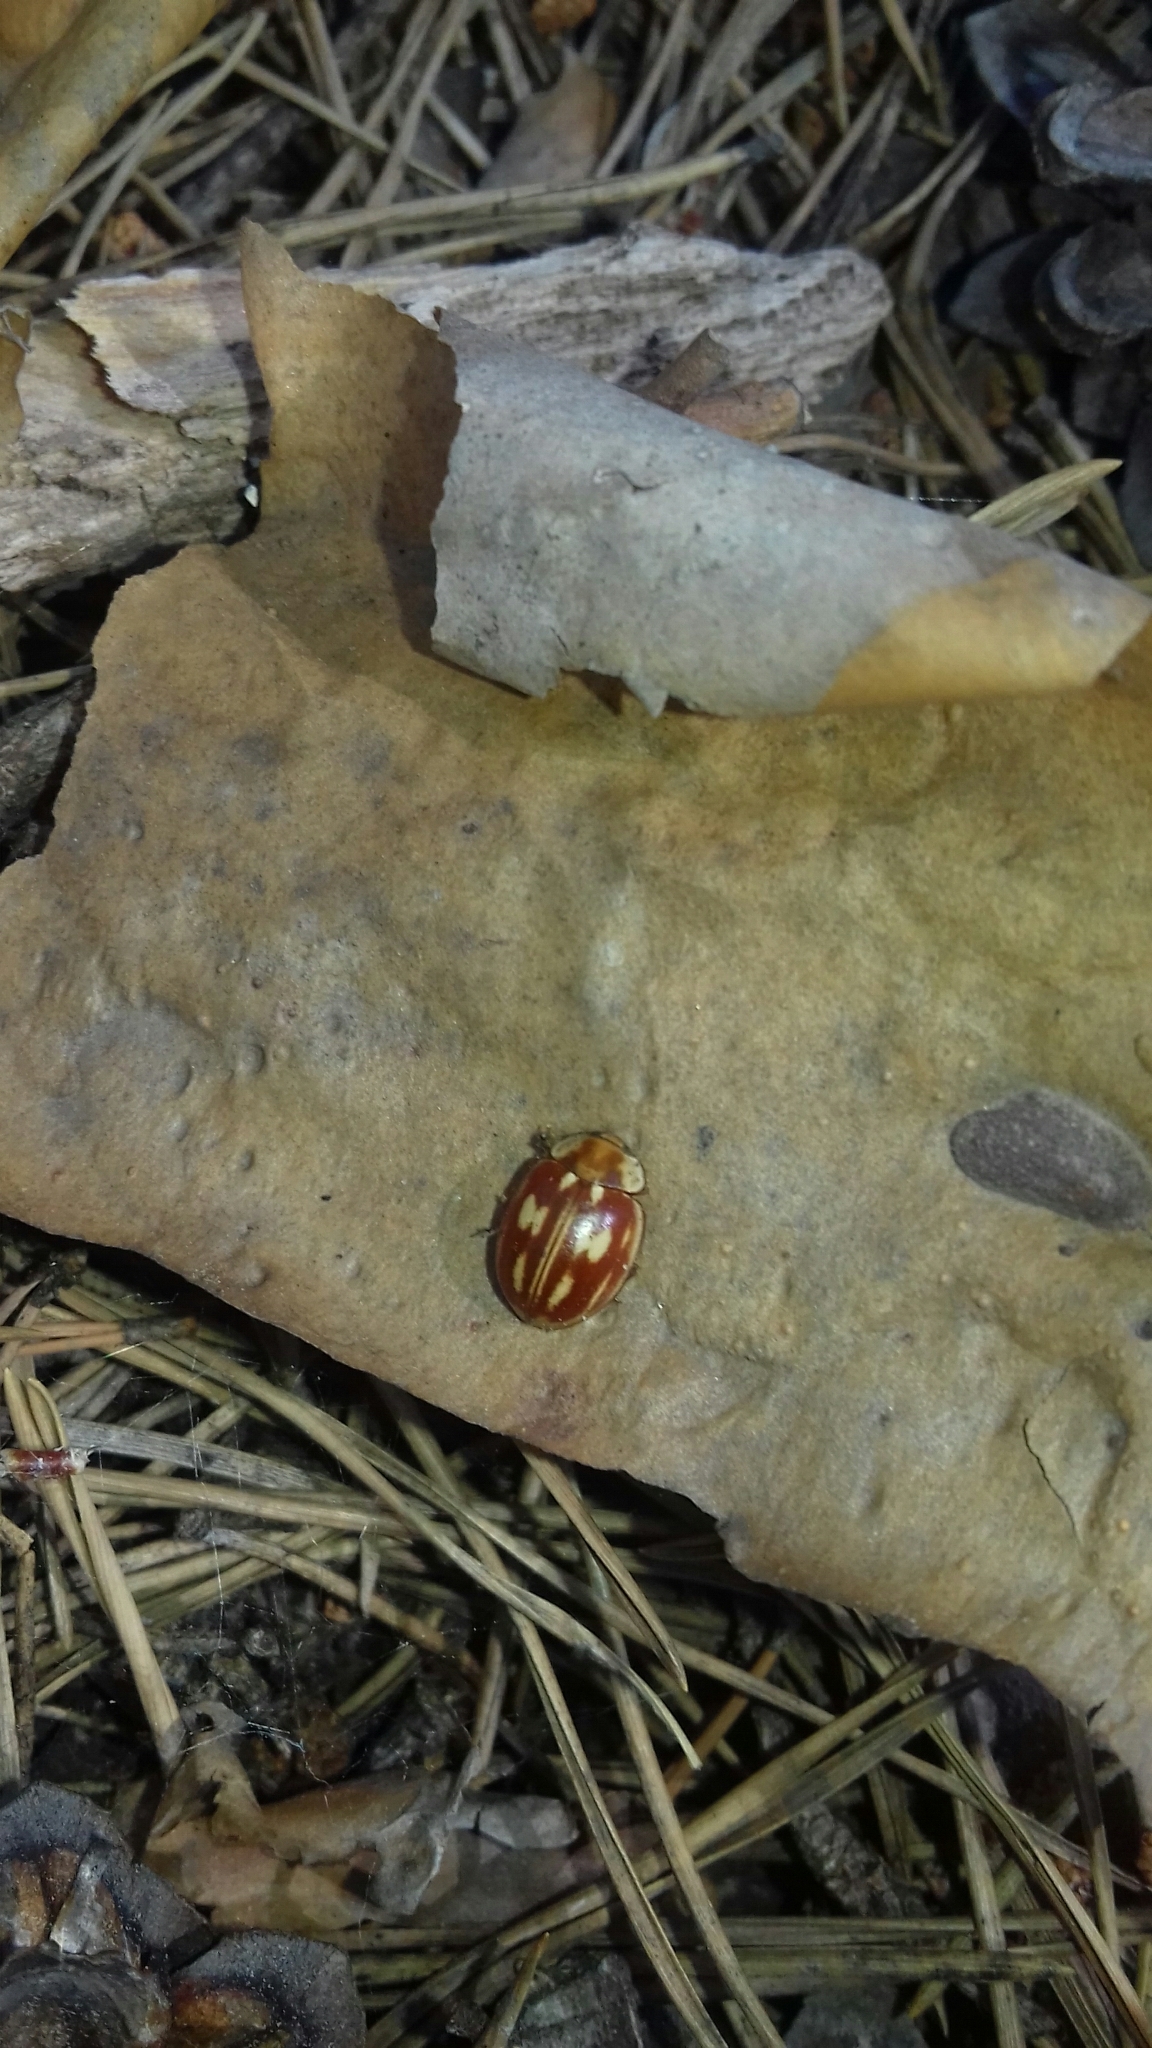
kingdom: Animalia
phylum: Arthropoda
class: Insecta
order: Coleoptera
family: Coccinellidae
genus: Myzia
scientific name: Myzia oblongoguttata
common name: Striped ladybird
